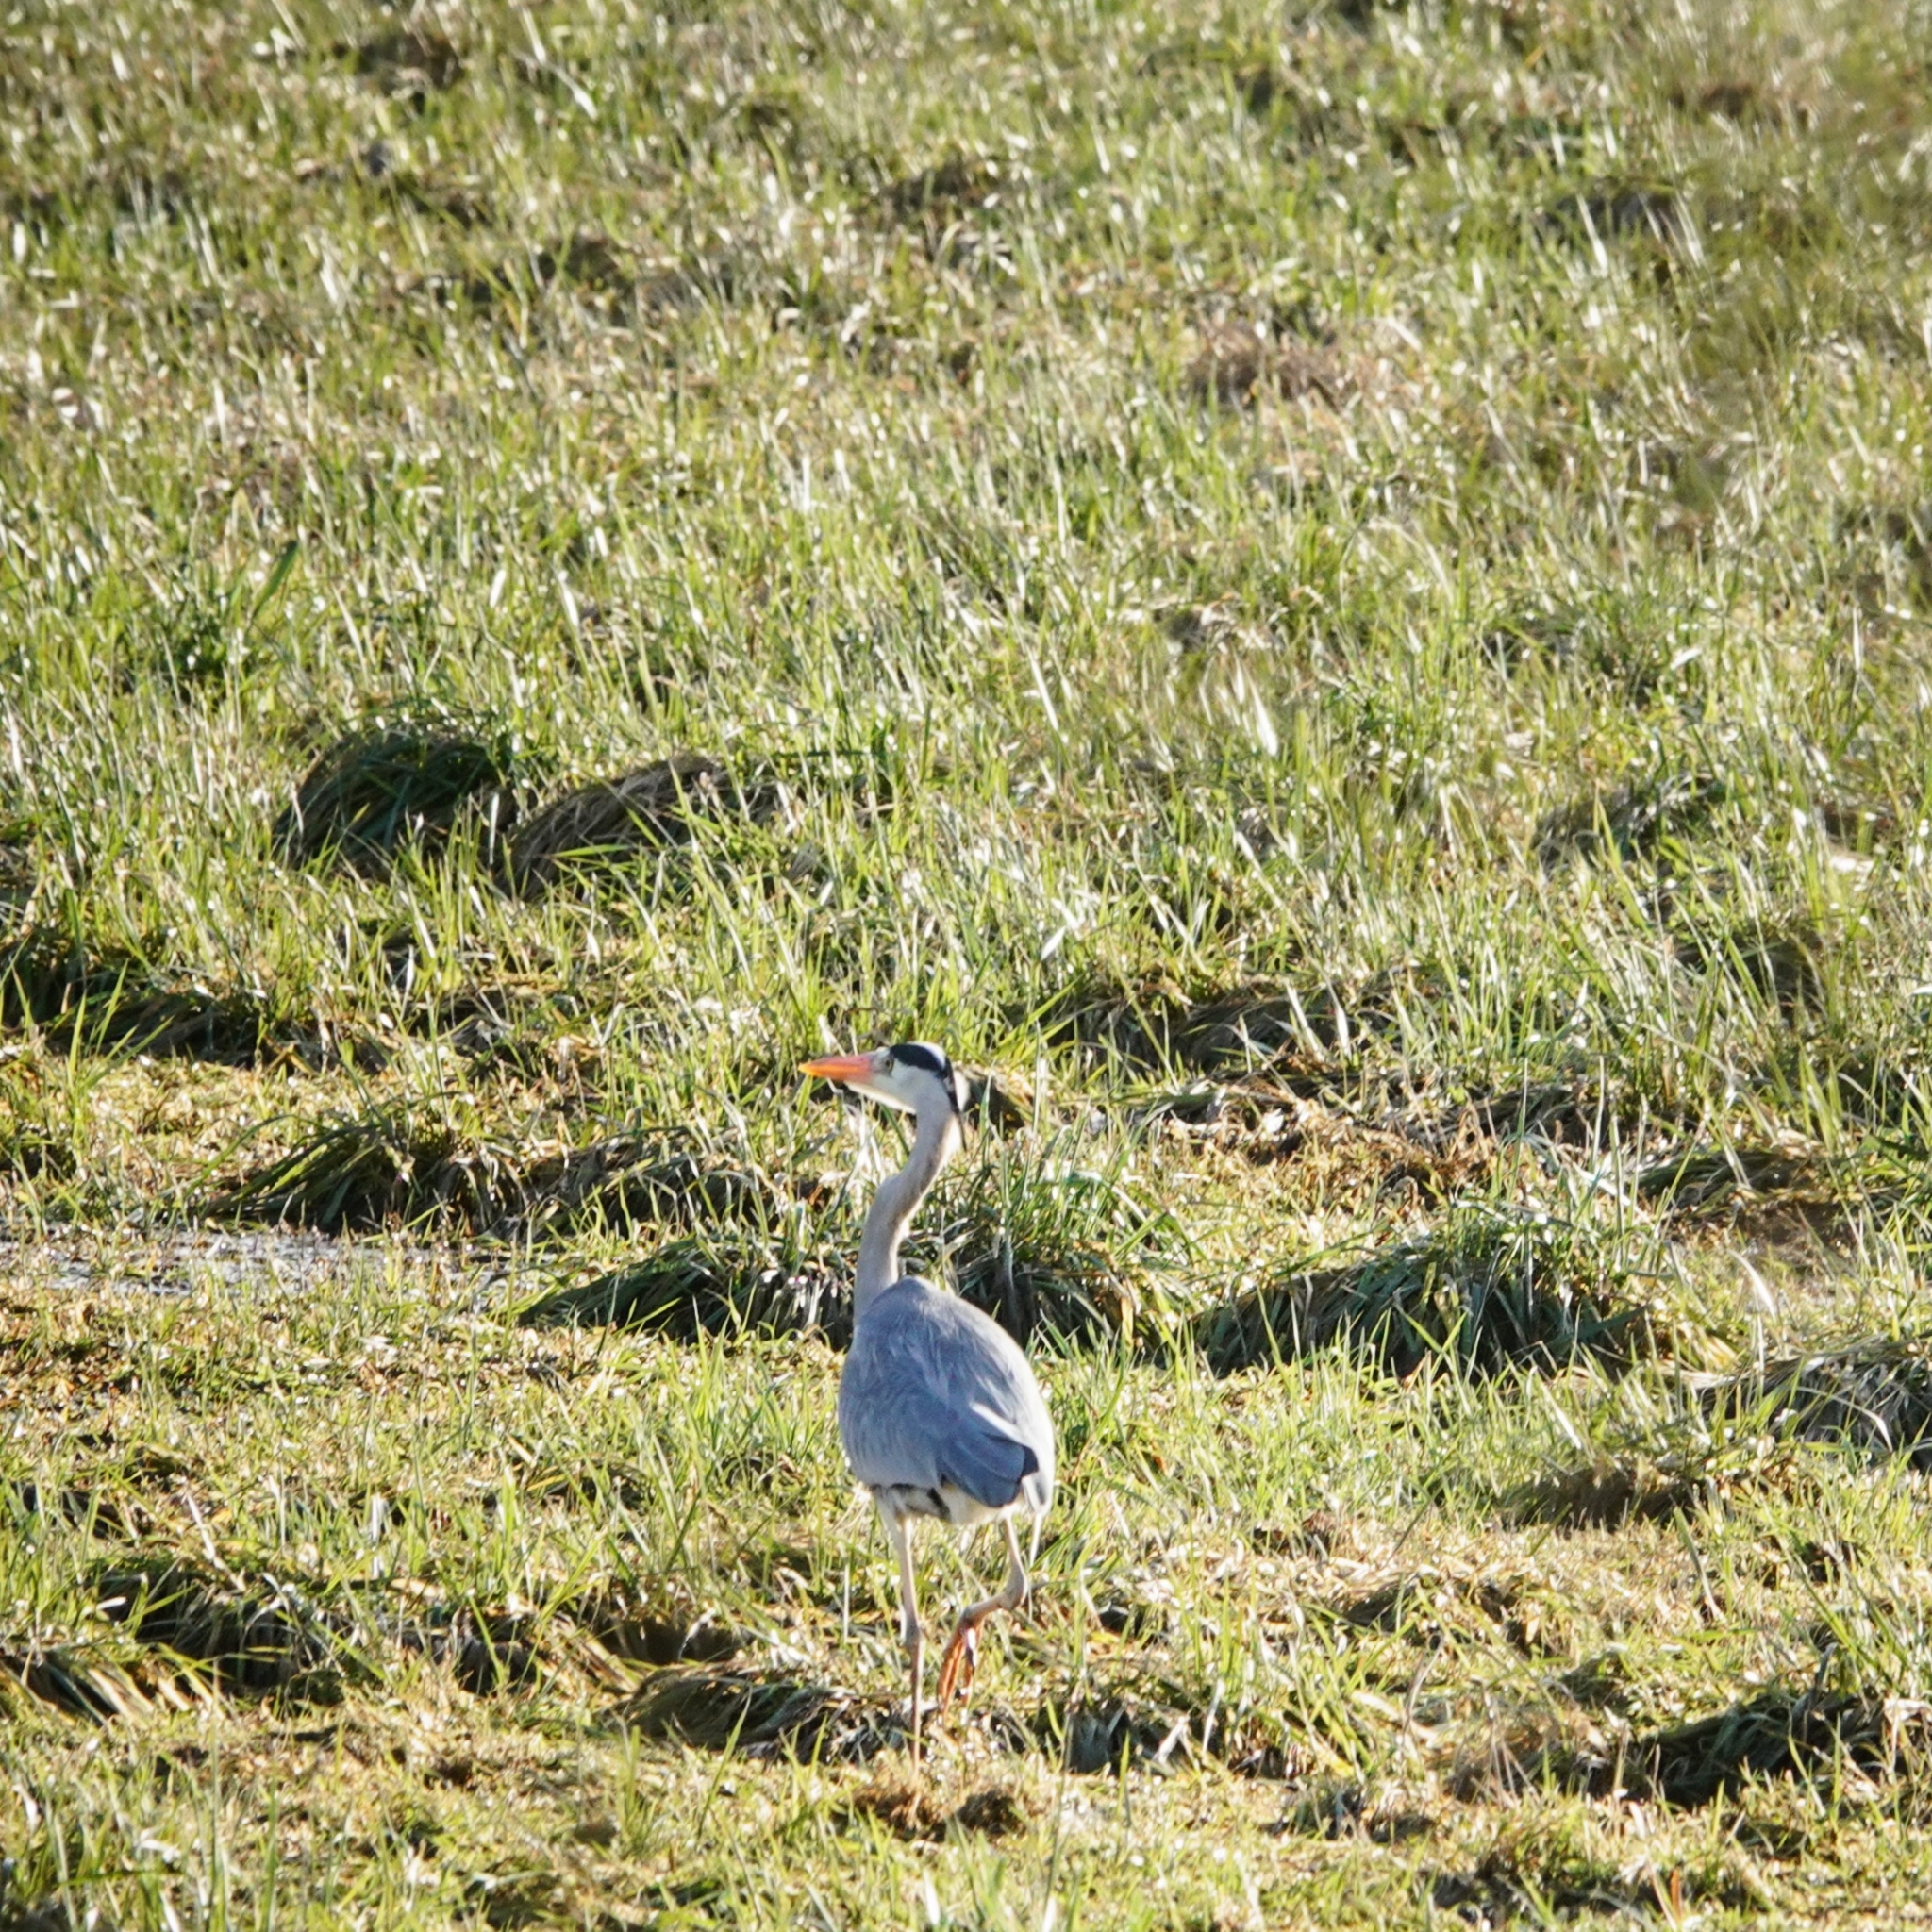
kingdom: Animalia
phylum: Chordata
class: Aves
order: Pelecaniformes
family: Ardeidae
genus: Ardea
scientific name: Ardea cinerea
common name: Grey heron
